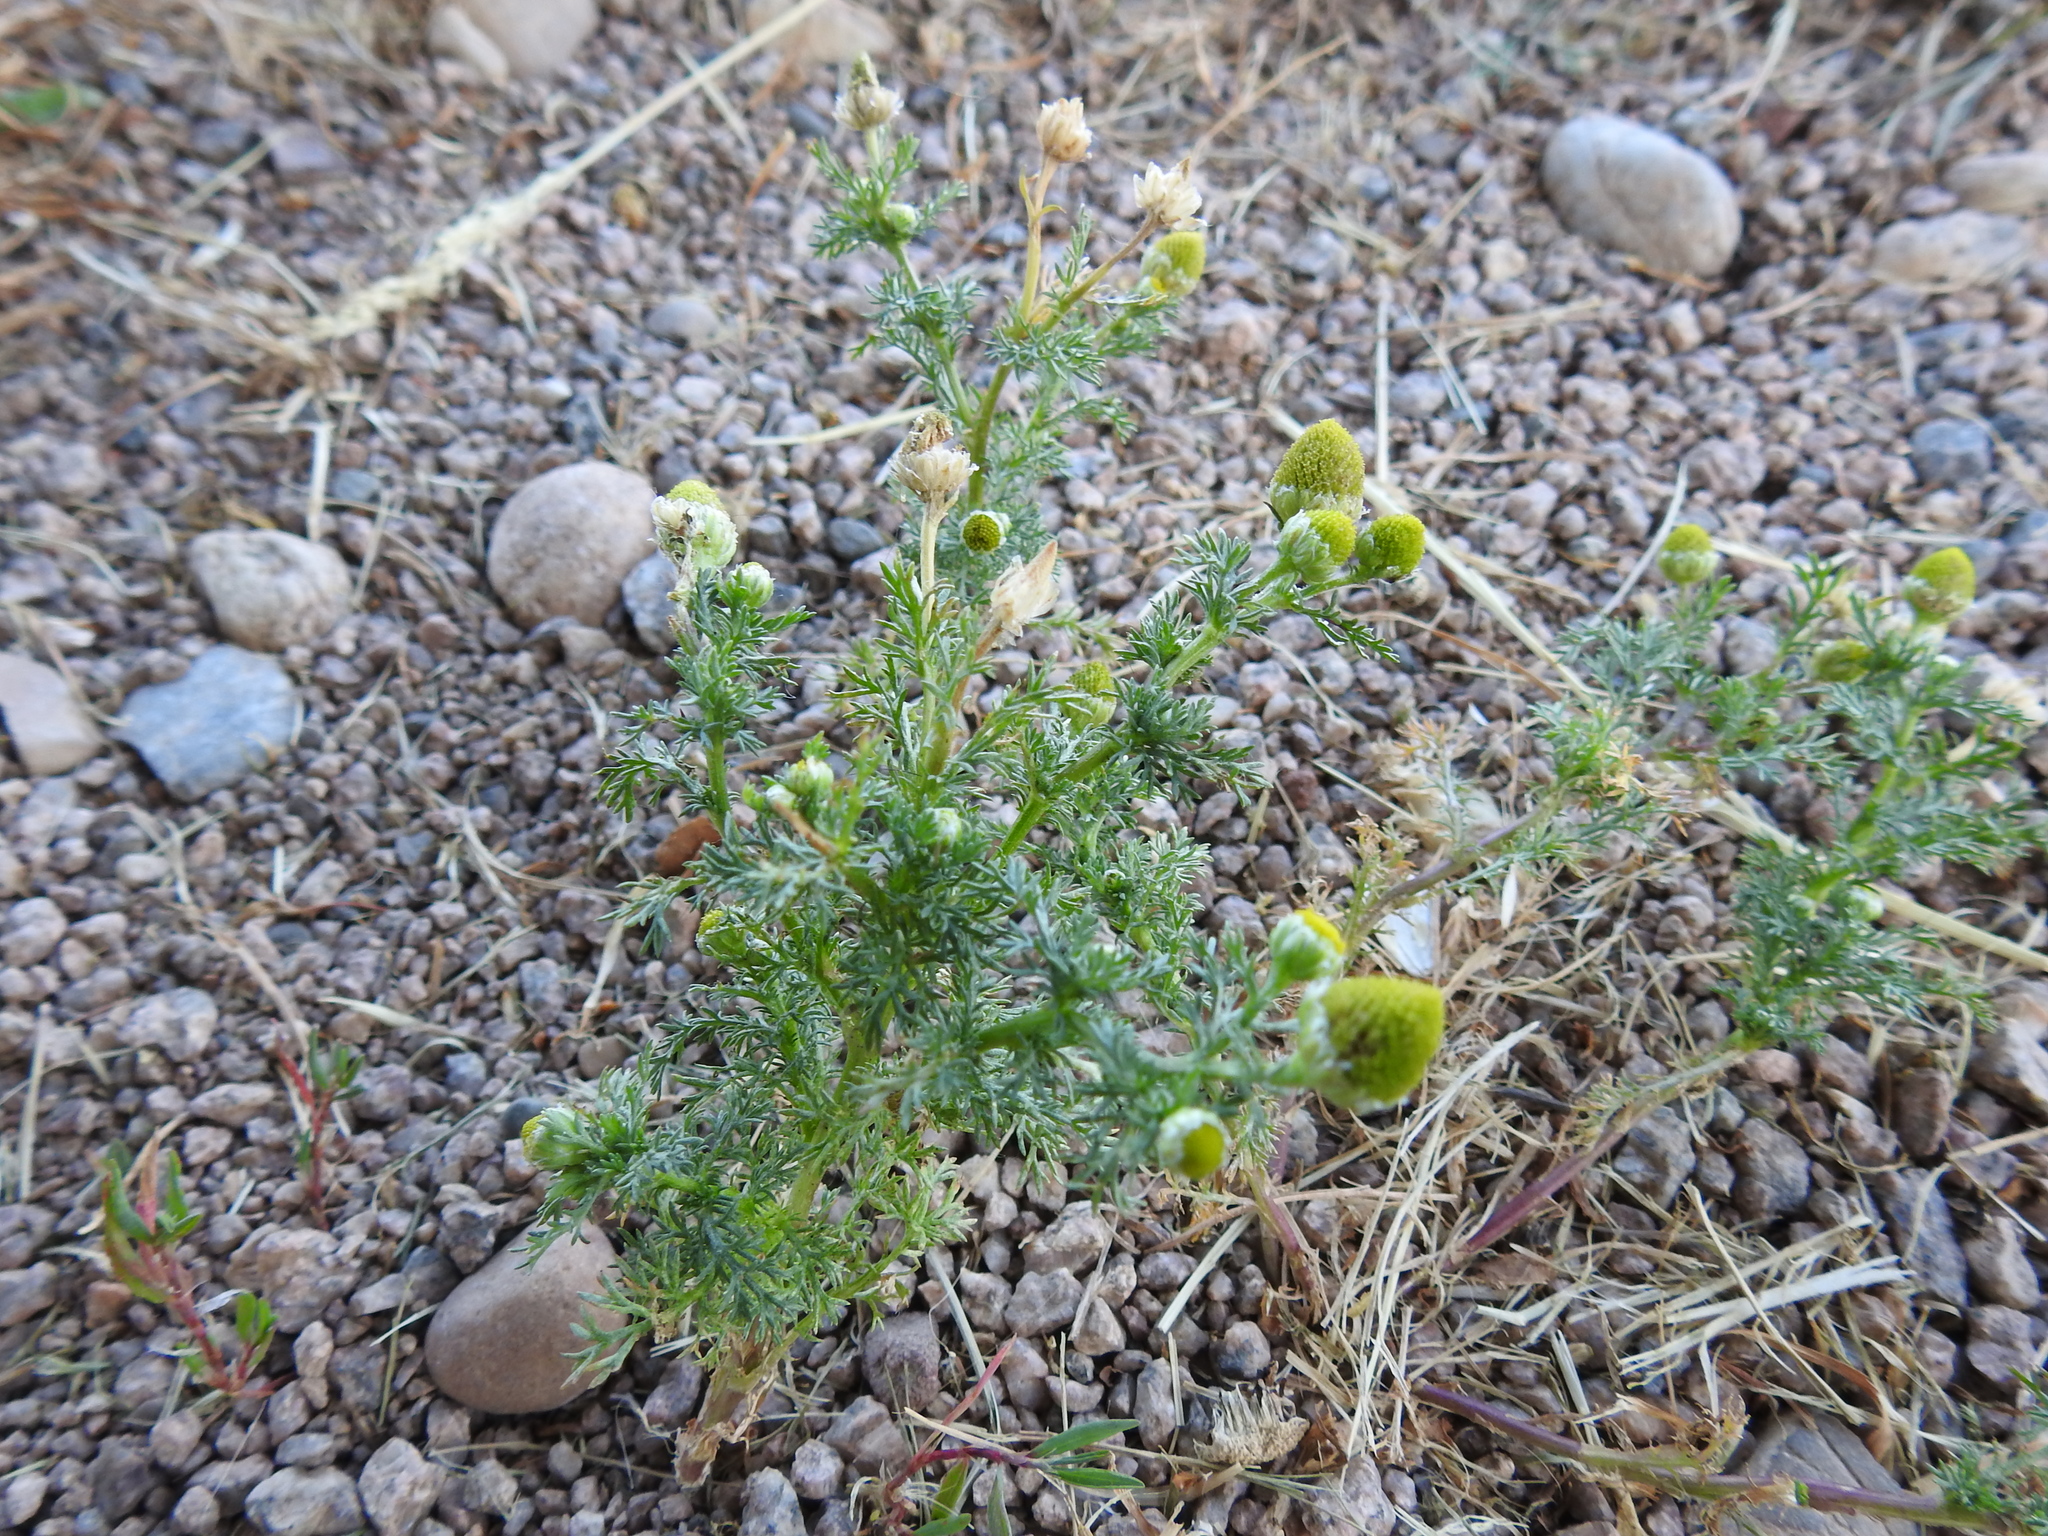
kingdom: Plantae
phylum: Tracheophyta
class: Magnoliopsida
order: Asterales
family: Asteraceae
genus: Matricaria
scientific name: Matricaria discoidea
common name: Disc mayweed
